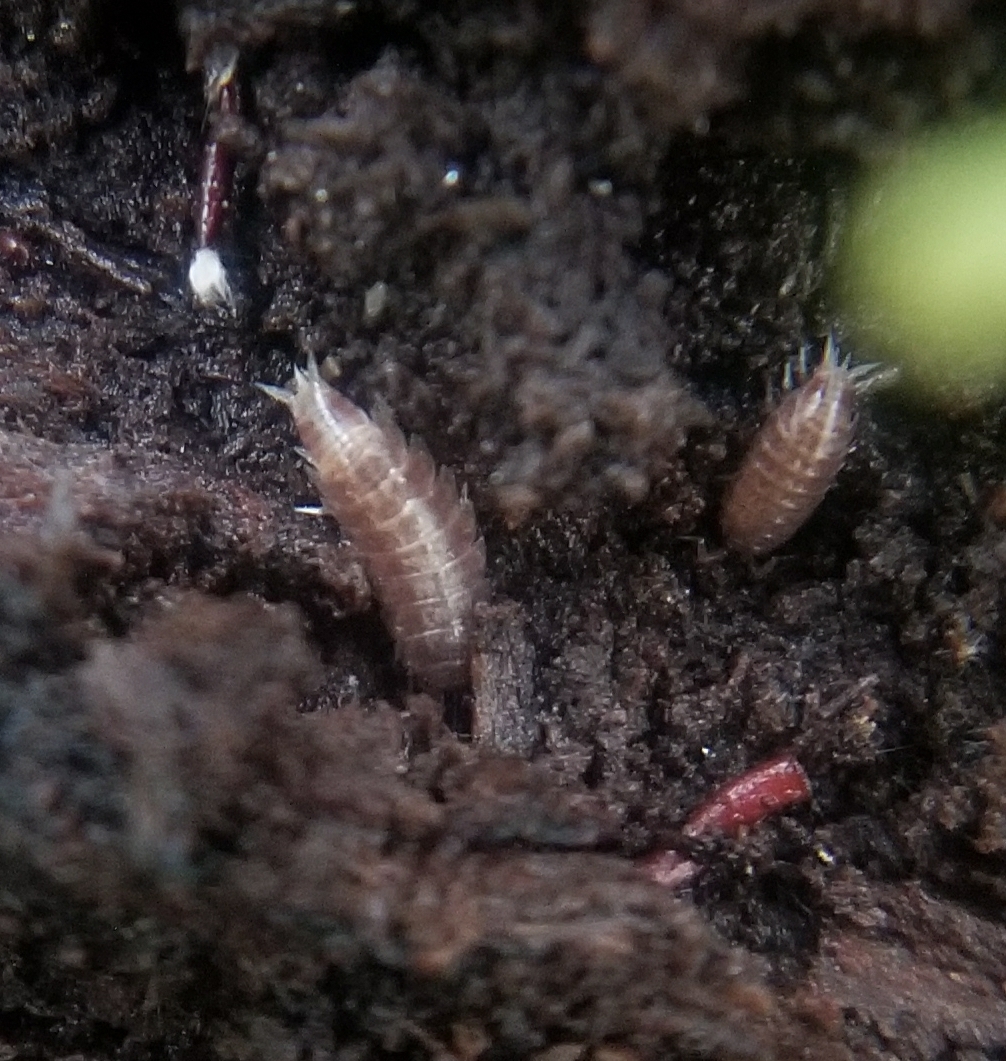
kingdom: Animalia
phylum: Arthropoda
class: Malacostraca
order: Isopoda
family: Trichoniscidae
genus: Hyloniscus
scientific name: Hyloniscus riparius
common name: Isopod
